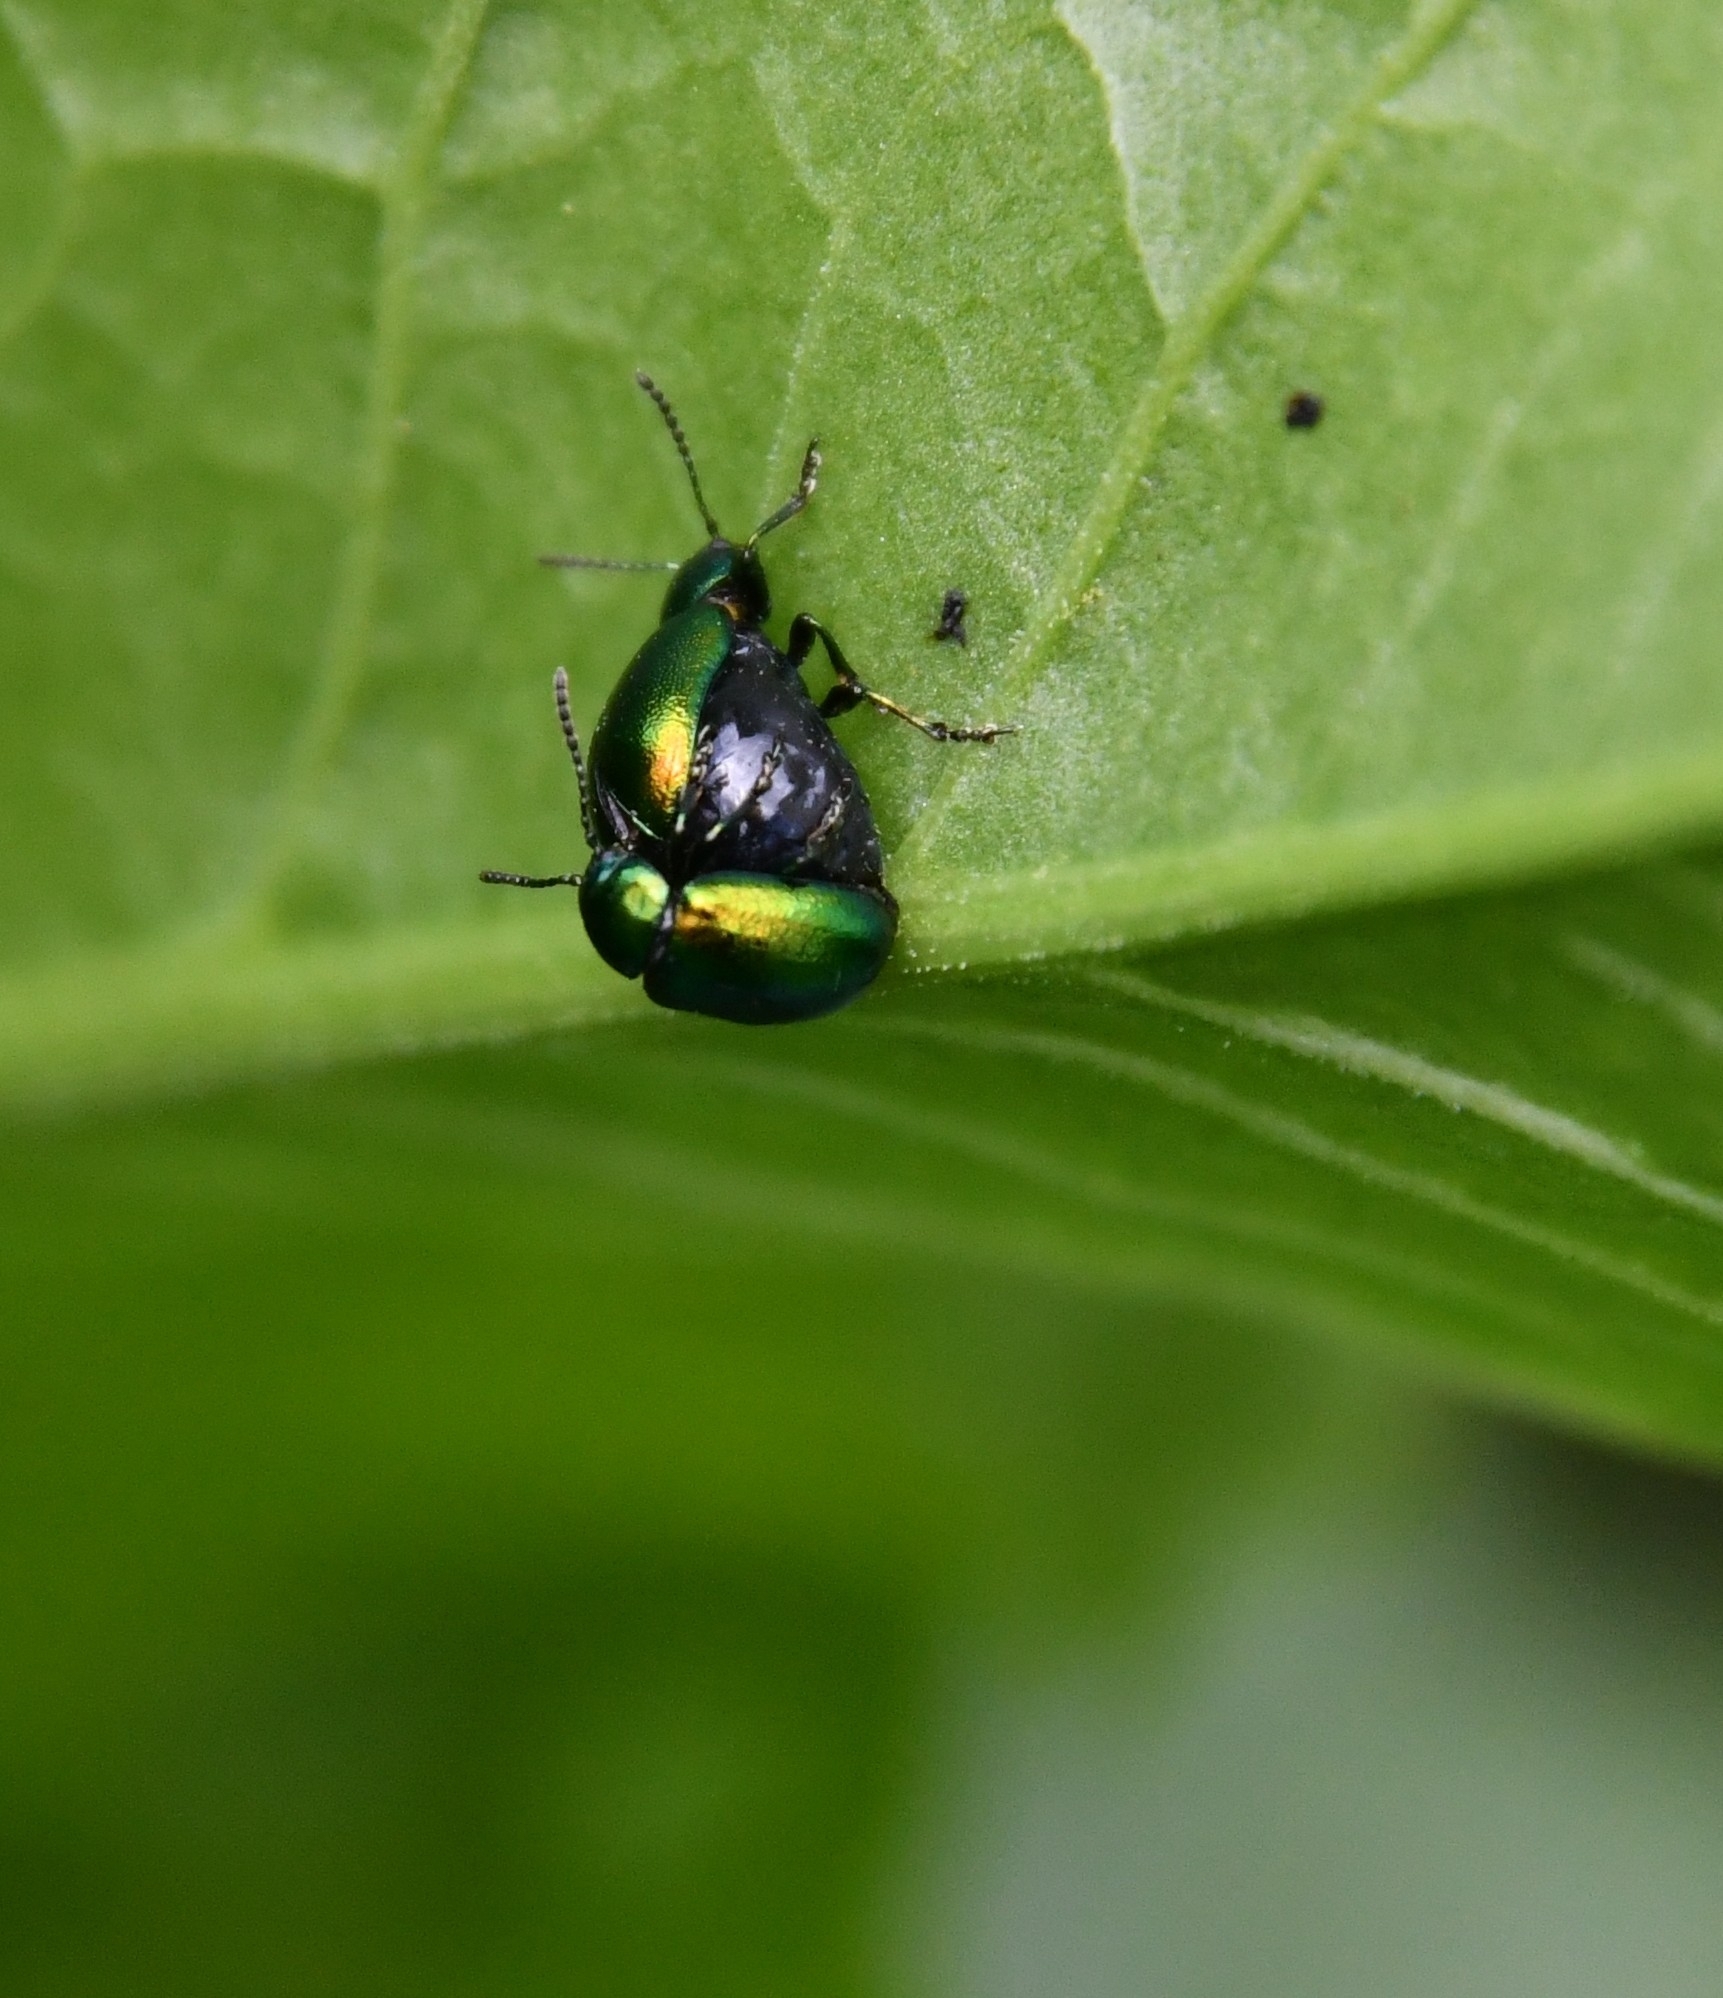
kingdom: Animalia
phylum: Arthropoda
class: Insecta
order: Coleoptera
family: Chrysomelidae
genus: Gastrophysa
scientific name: Gastrophysa viridula
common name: Green dock beetle
